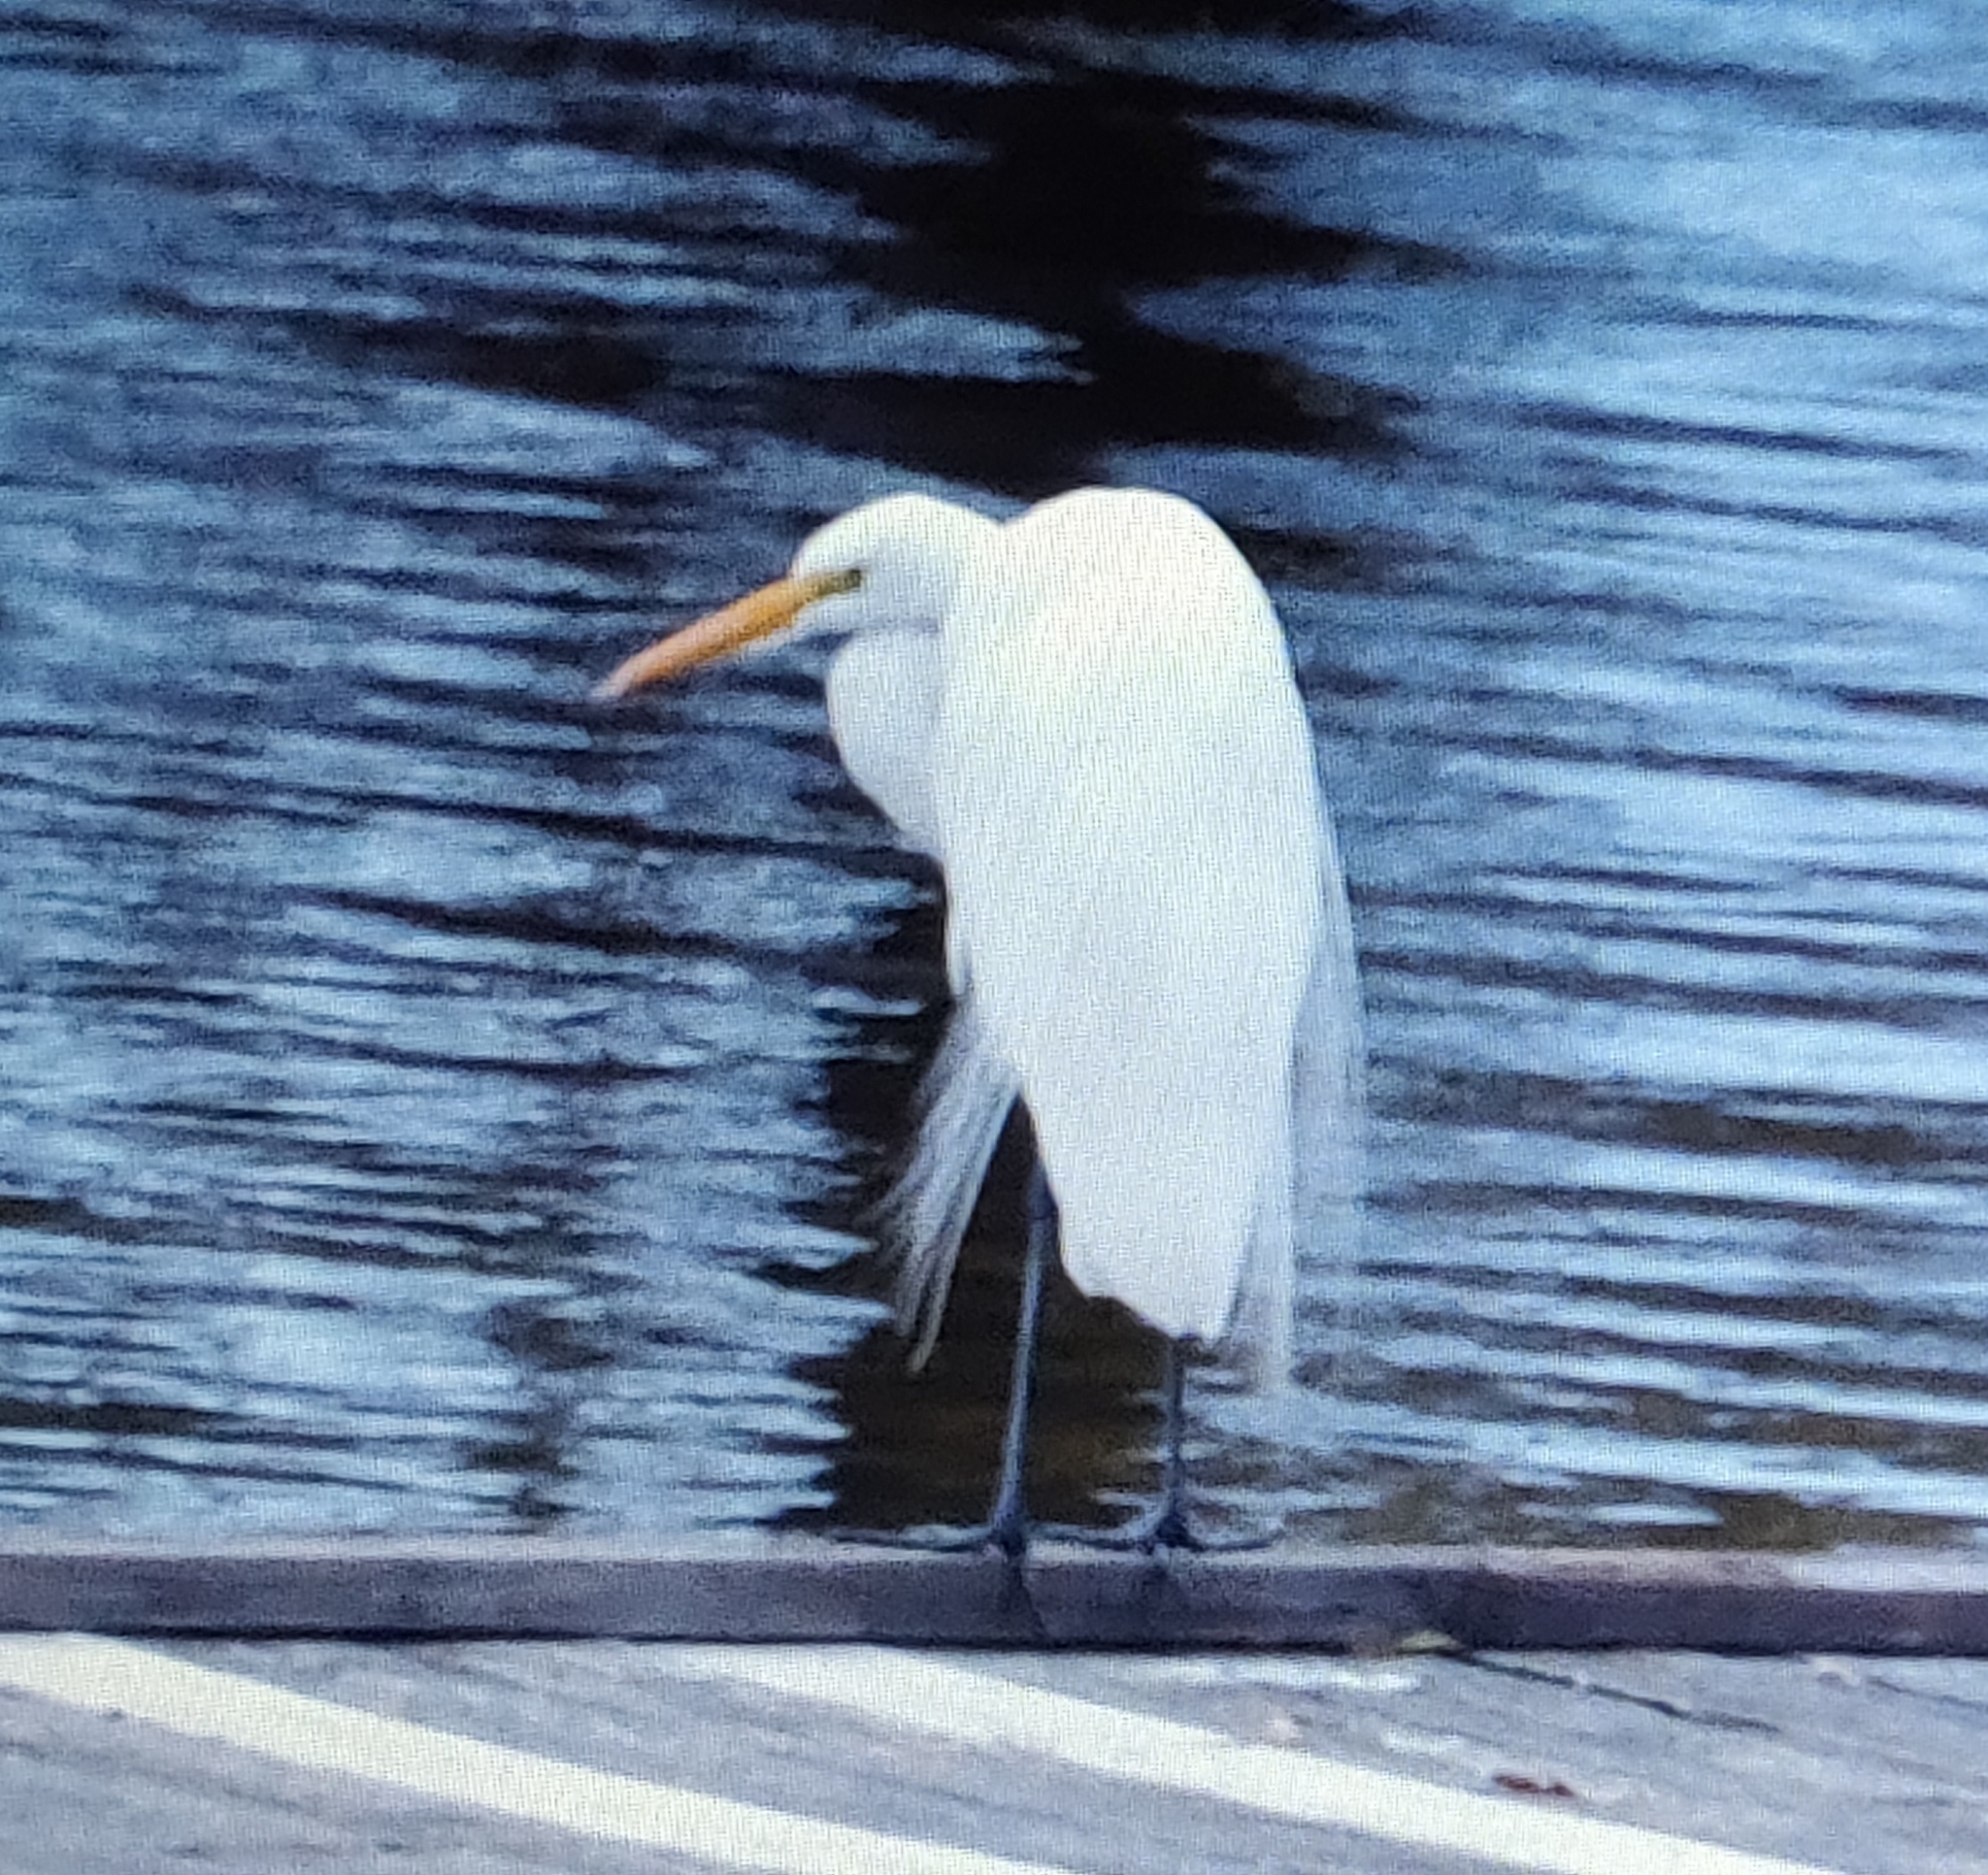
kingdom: Animalia
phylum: Chordata
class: Aves
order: Pelecaniformes
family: Ardeidae
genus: Ardea
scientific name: Ardea alba
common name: Great egret
